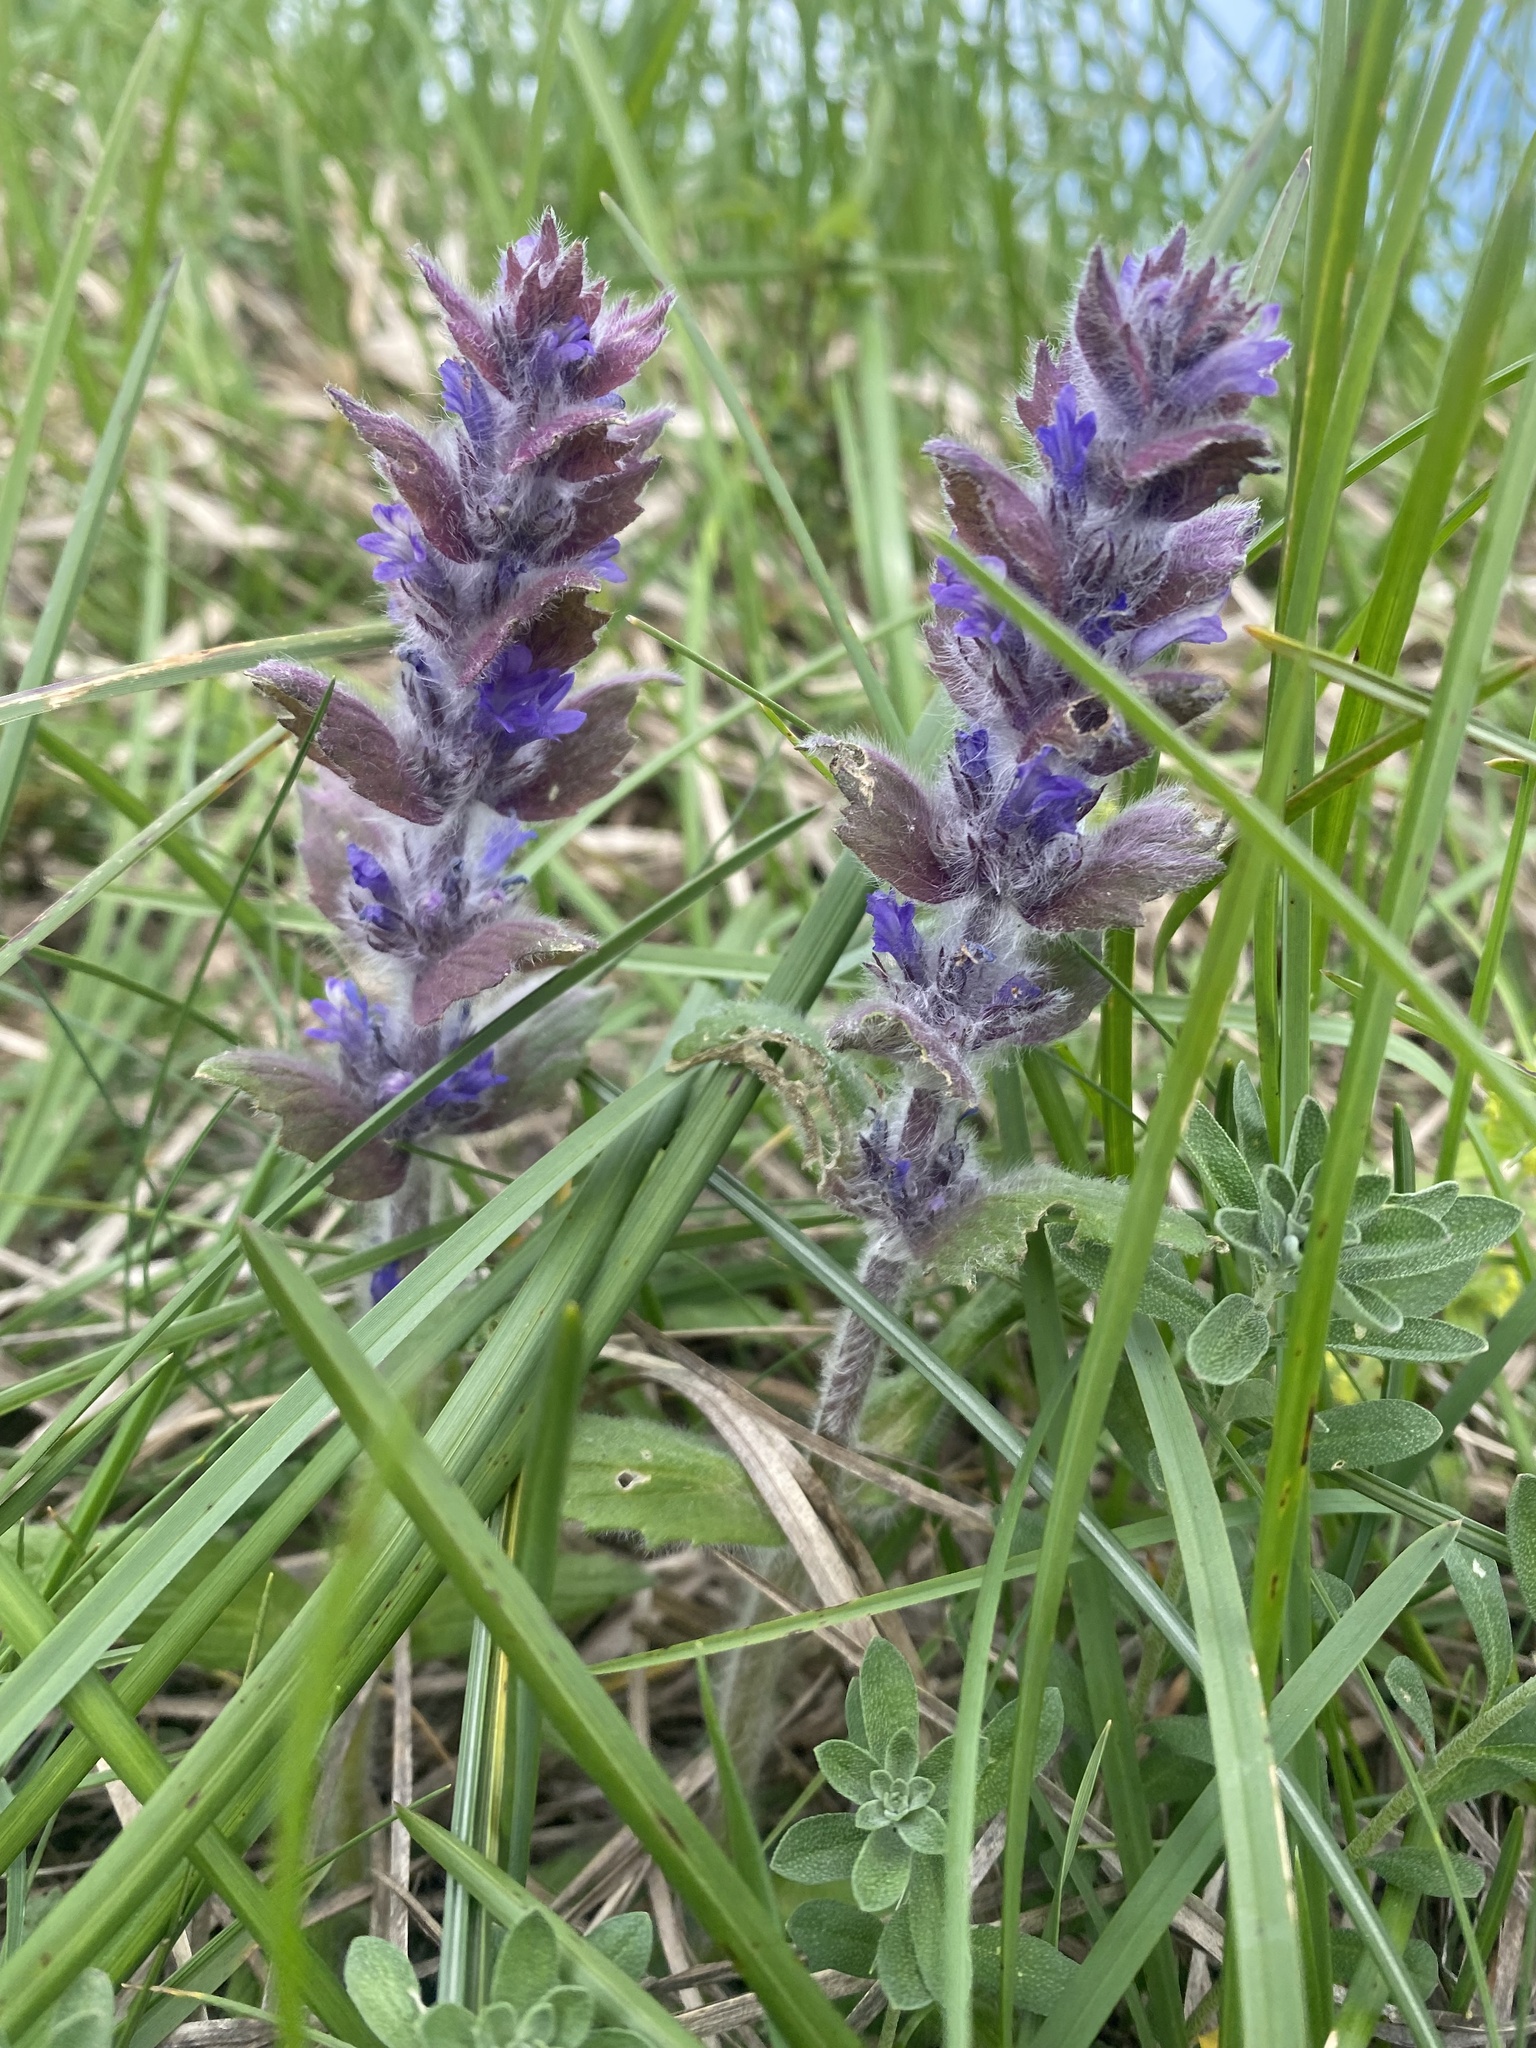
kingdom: Plantae
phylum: Tracheophyta
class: Magnoliopsida
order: Lamiales
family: Lamiaceae
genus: Ajuga
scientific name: Ajuga orientalis
